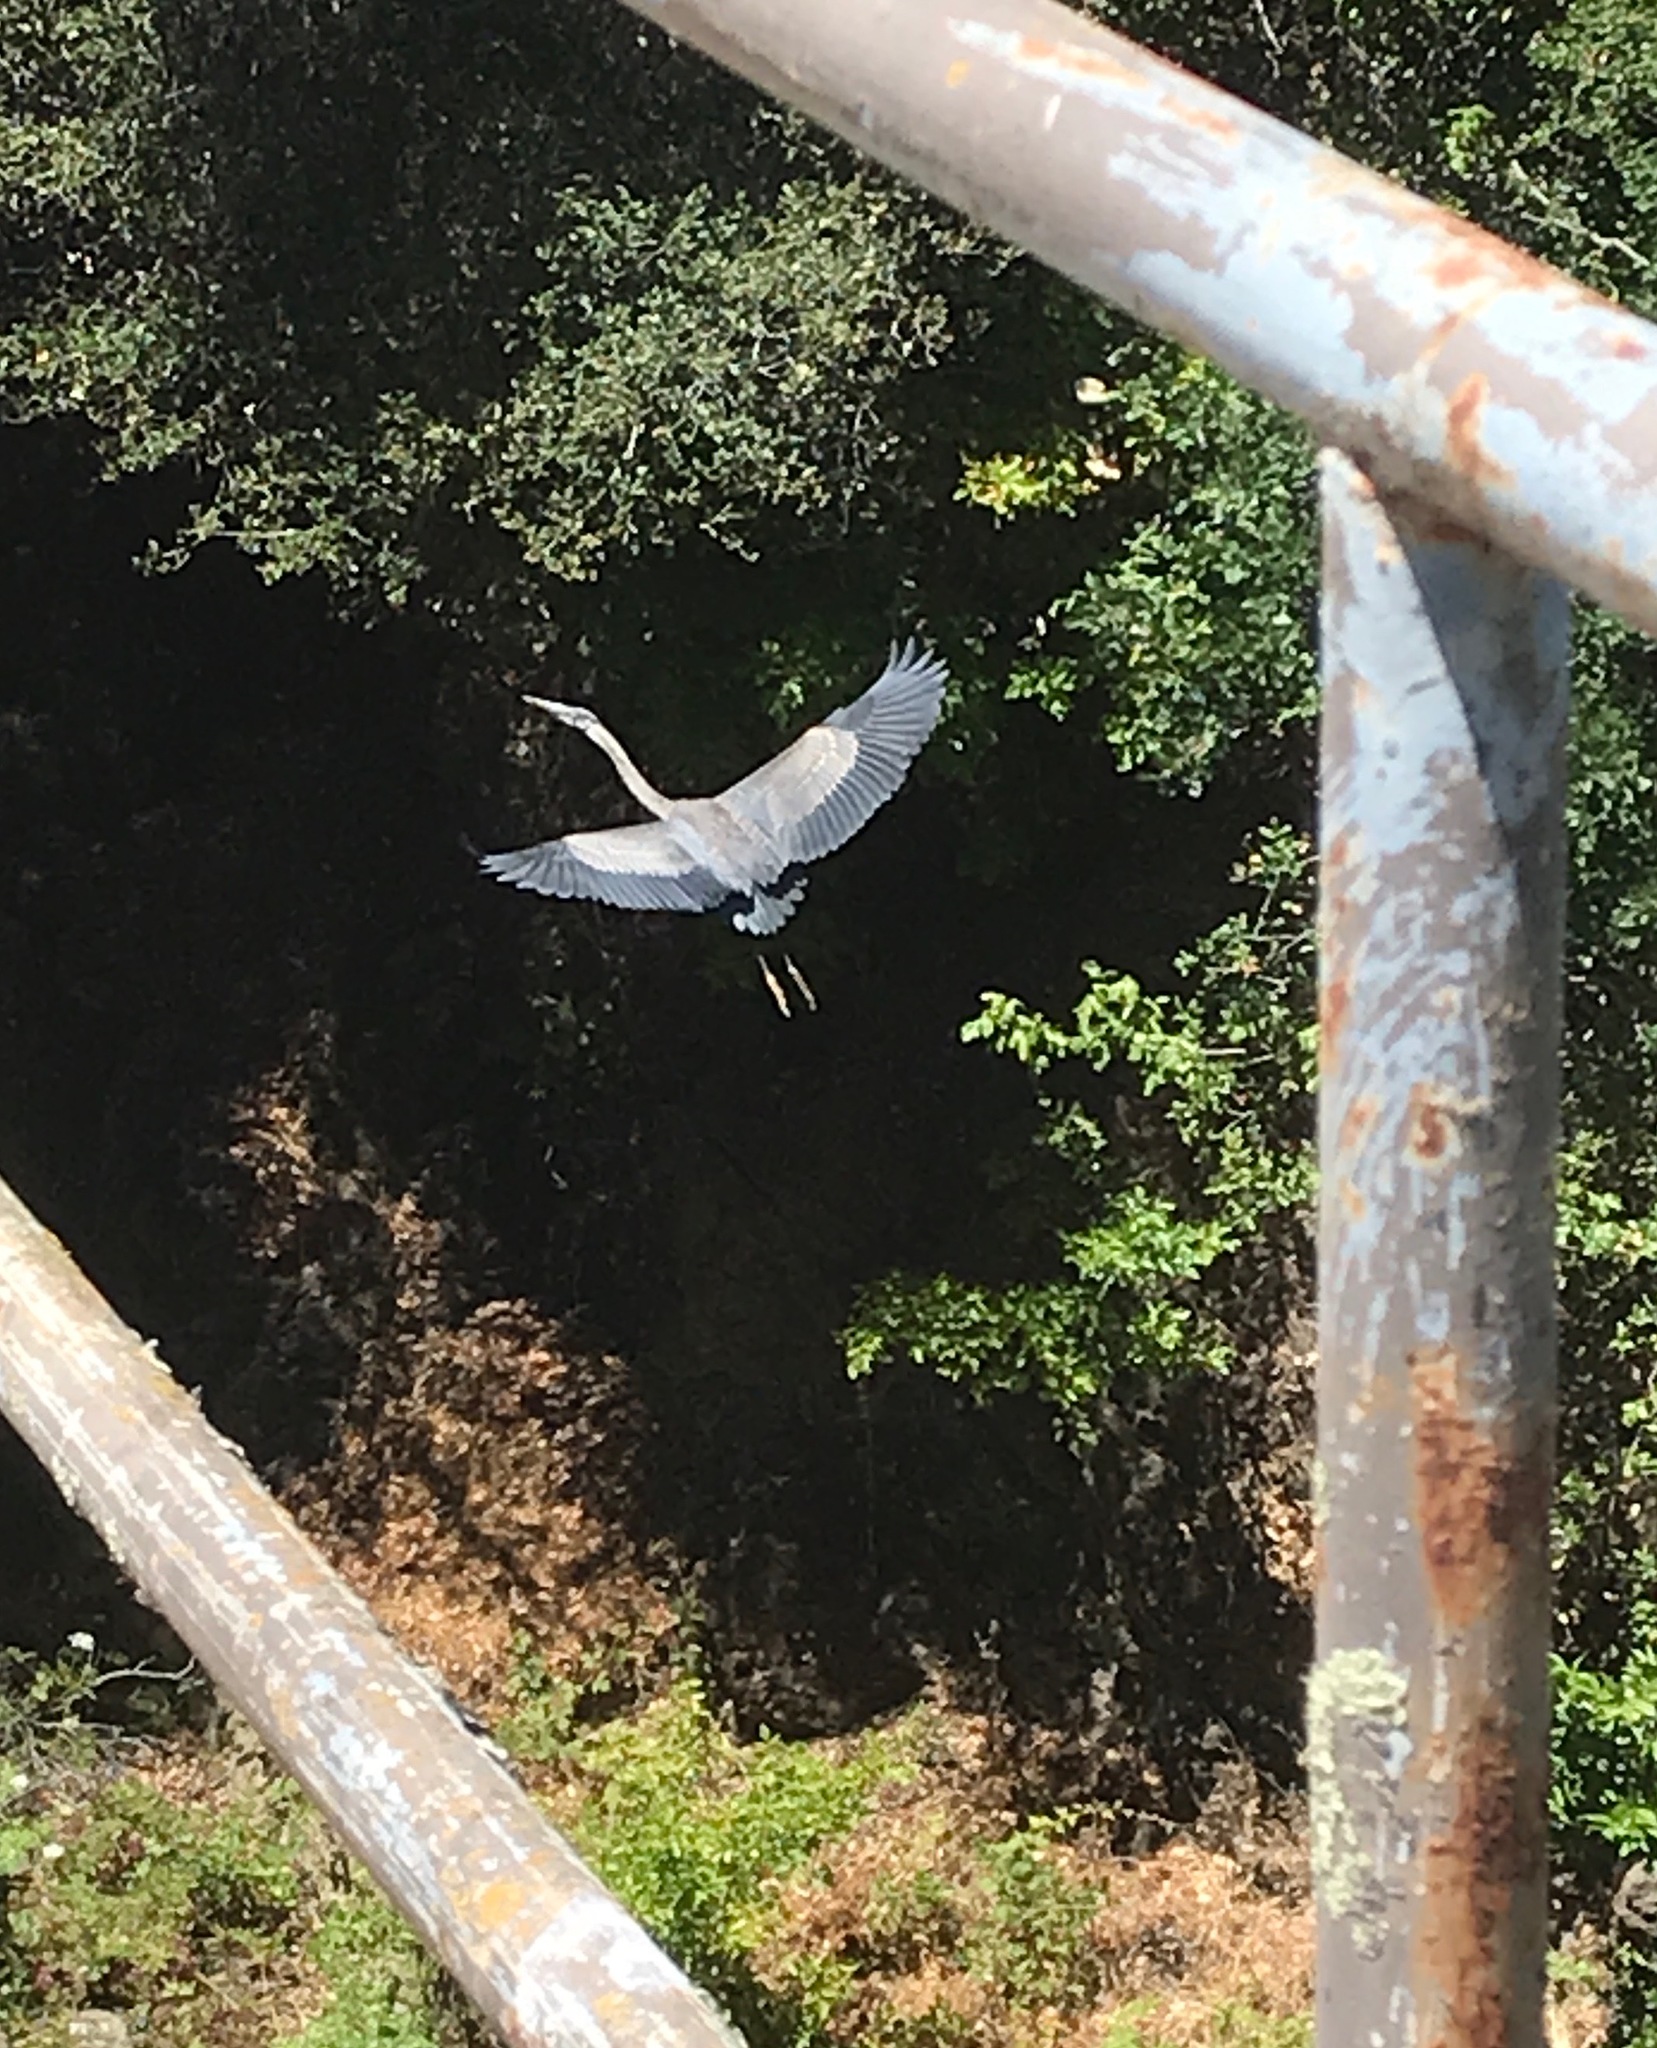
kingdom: Animalia
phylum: Chordata
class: Aves
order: Pelecaniformes
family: Ardeidae
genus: Ardea
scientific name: Ardea herodias
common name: Great blue heron
